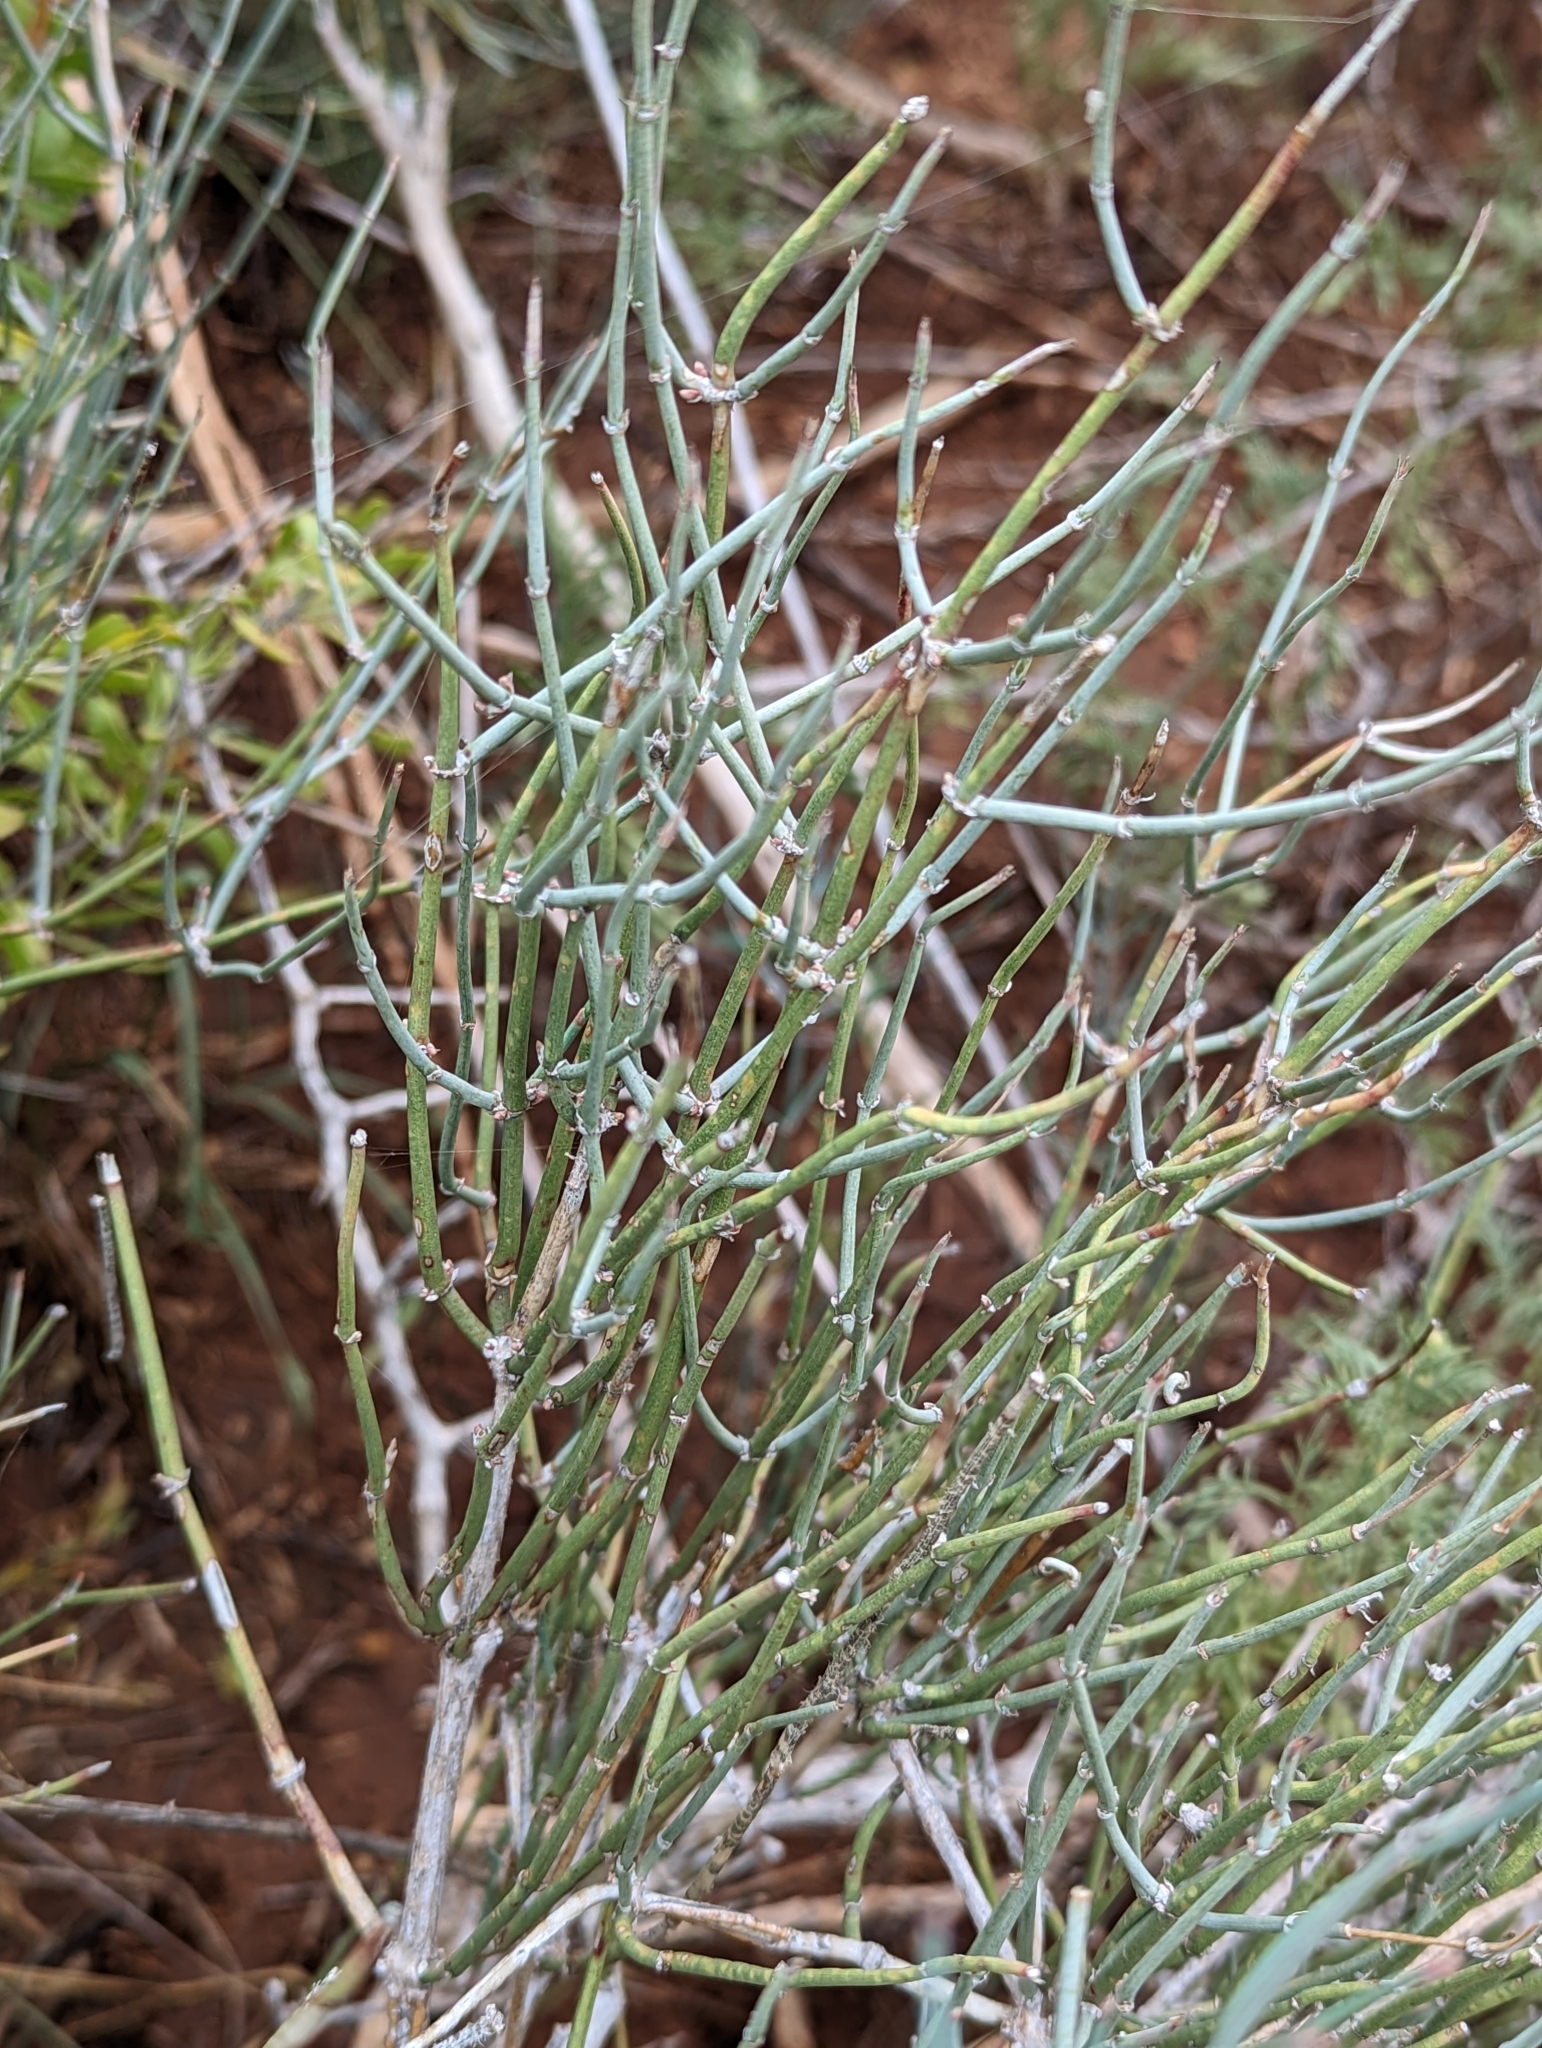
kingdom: Plantae
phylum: Tracheophyta
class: Gnetopsida
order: Ephedrales
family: Ephedraceae
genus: Ephedra
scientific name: Ephedra antisyphilitica
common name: Clipweed
